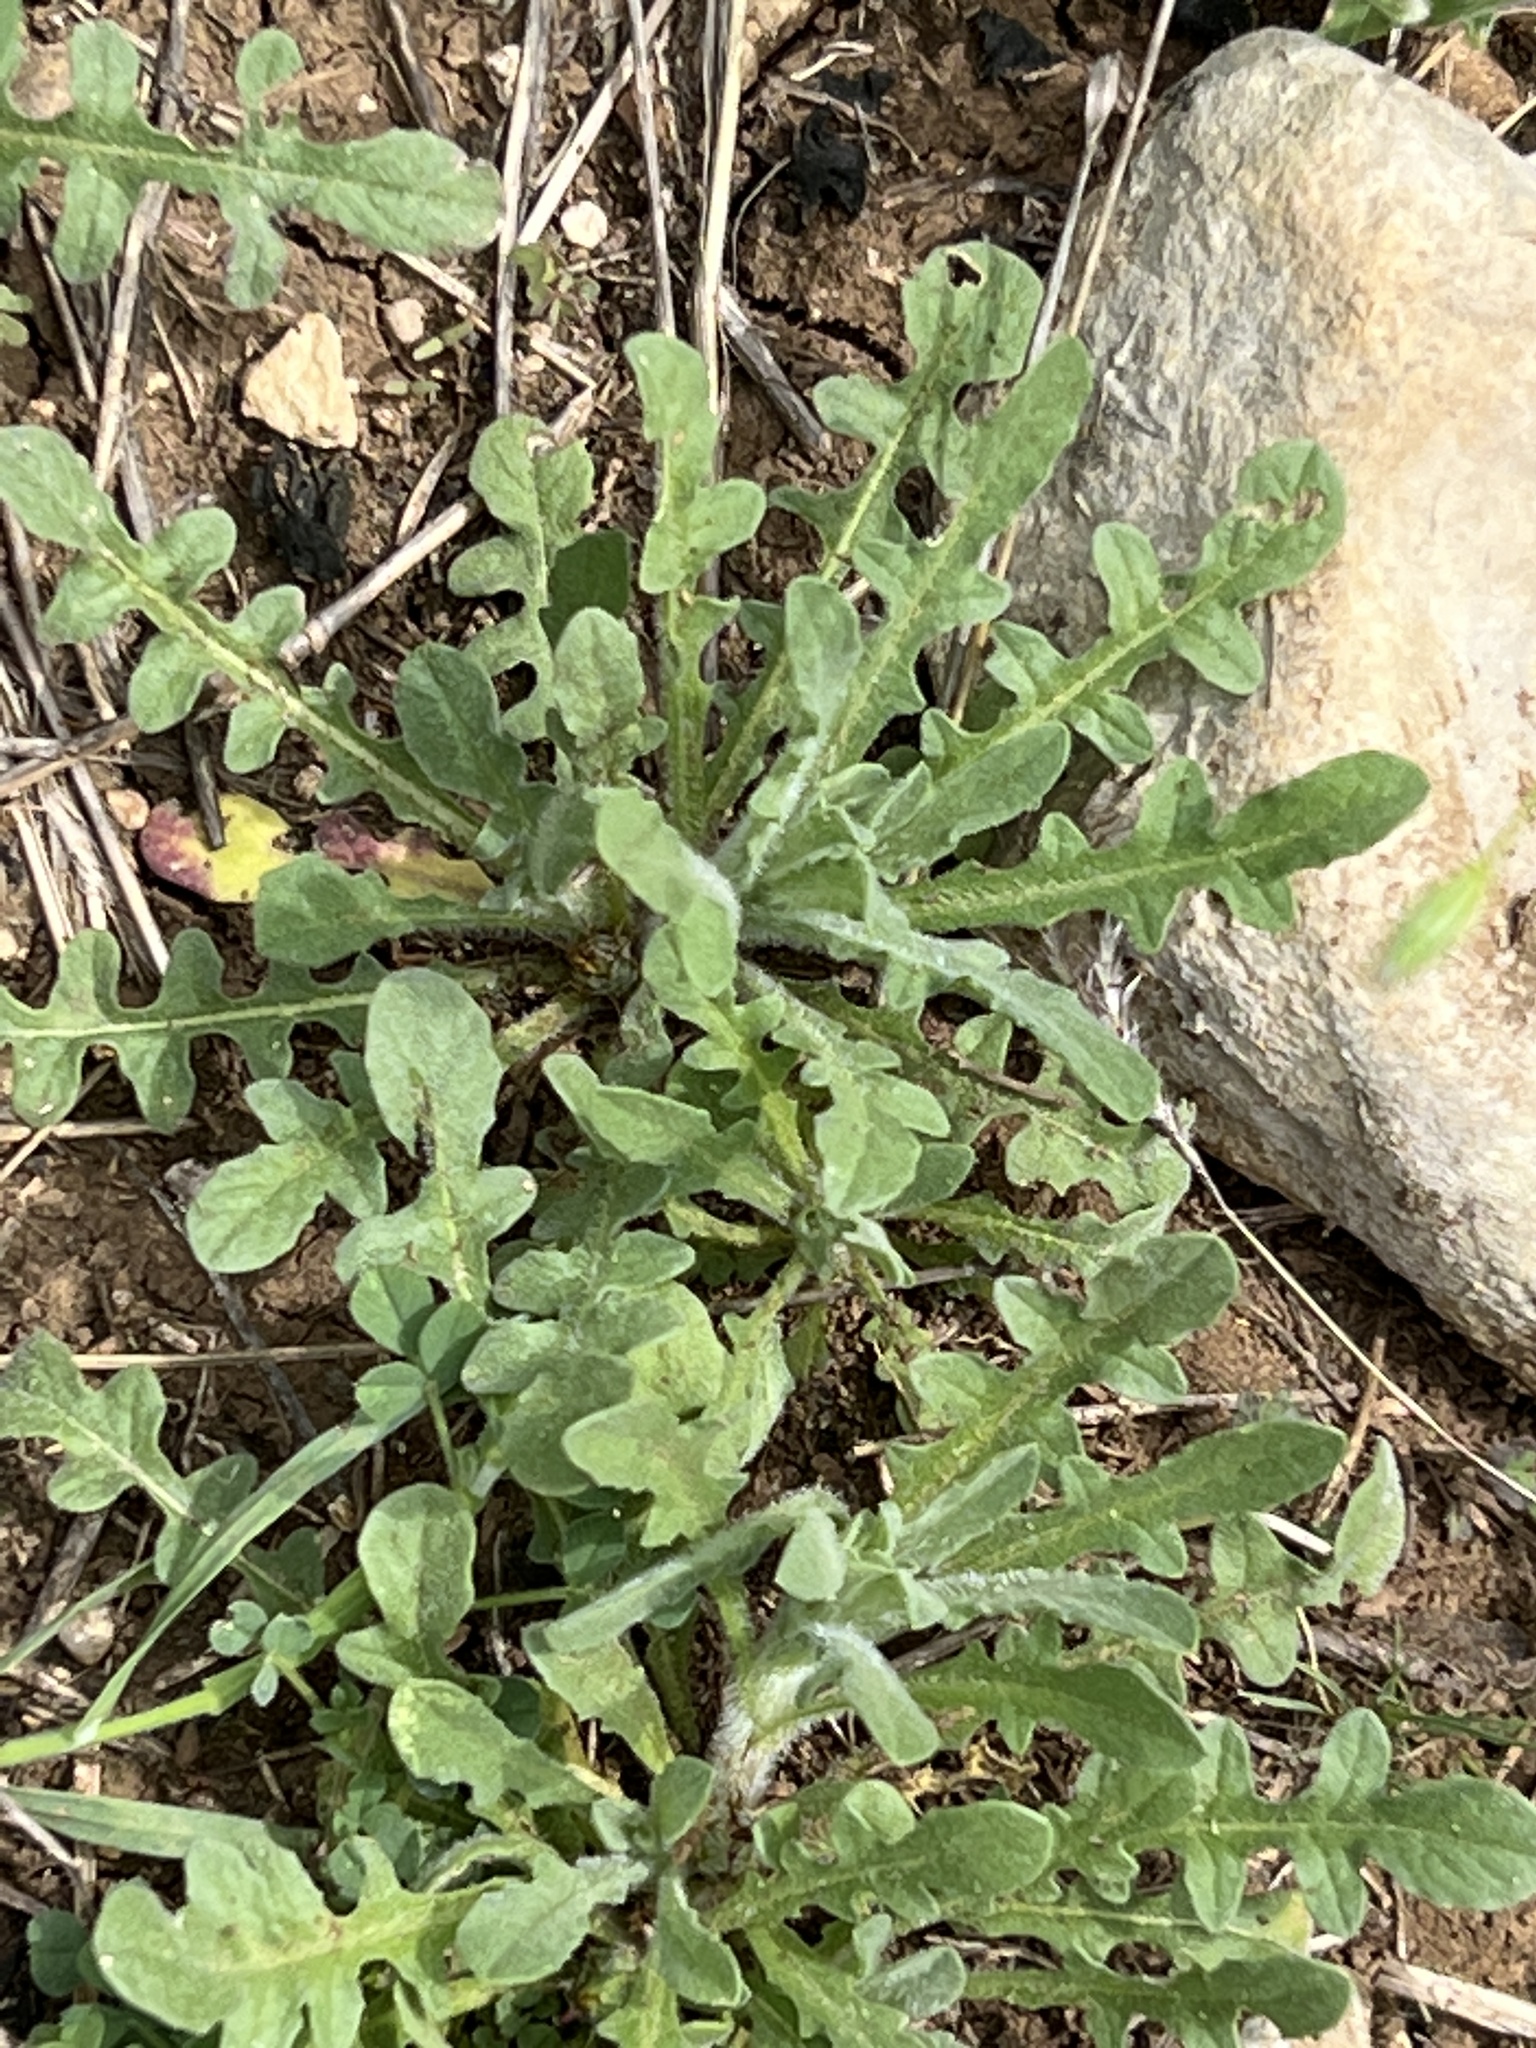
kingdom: Plantae
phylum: Tracheophyta
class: Magnoliopsida
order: Asterales
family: Asteraceae
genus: Centaurea
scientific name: Centaurea melitensis
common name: Maltese star-thistle
